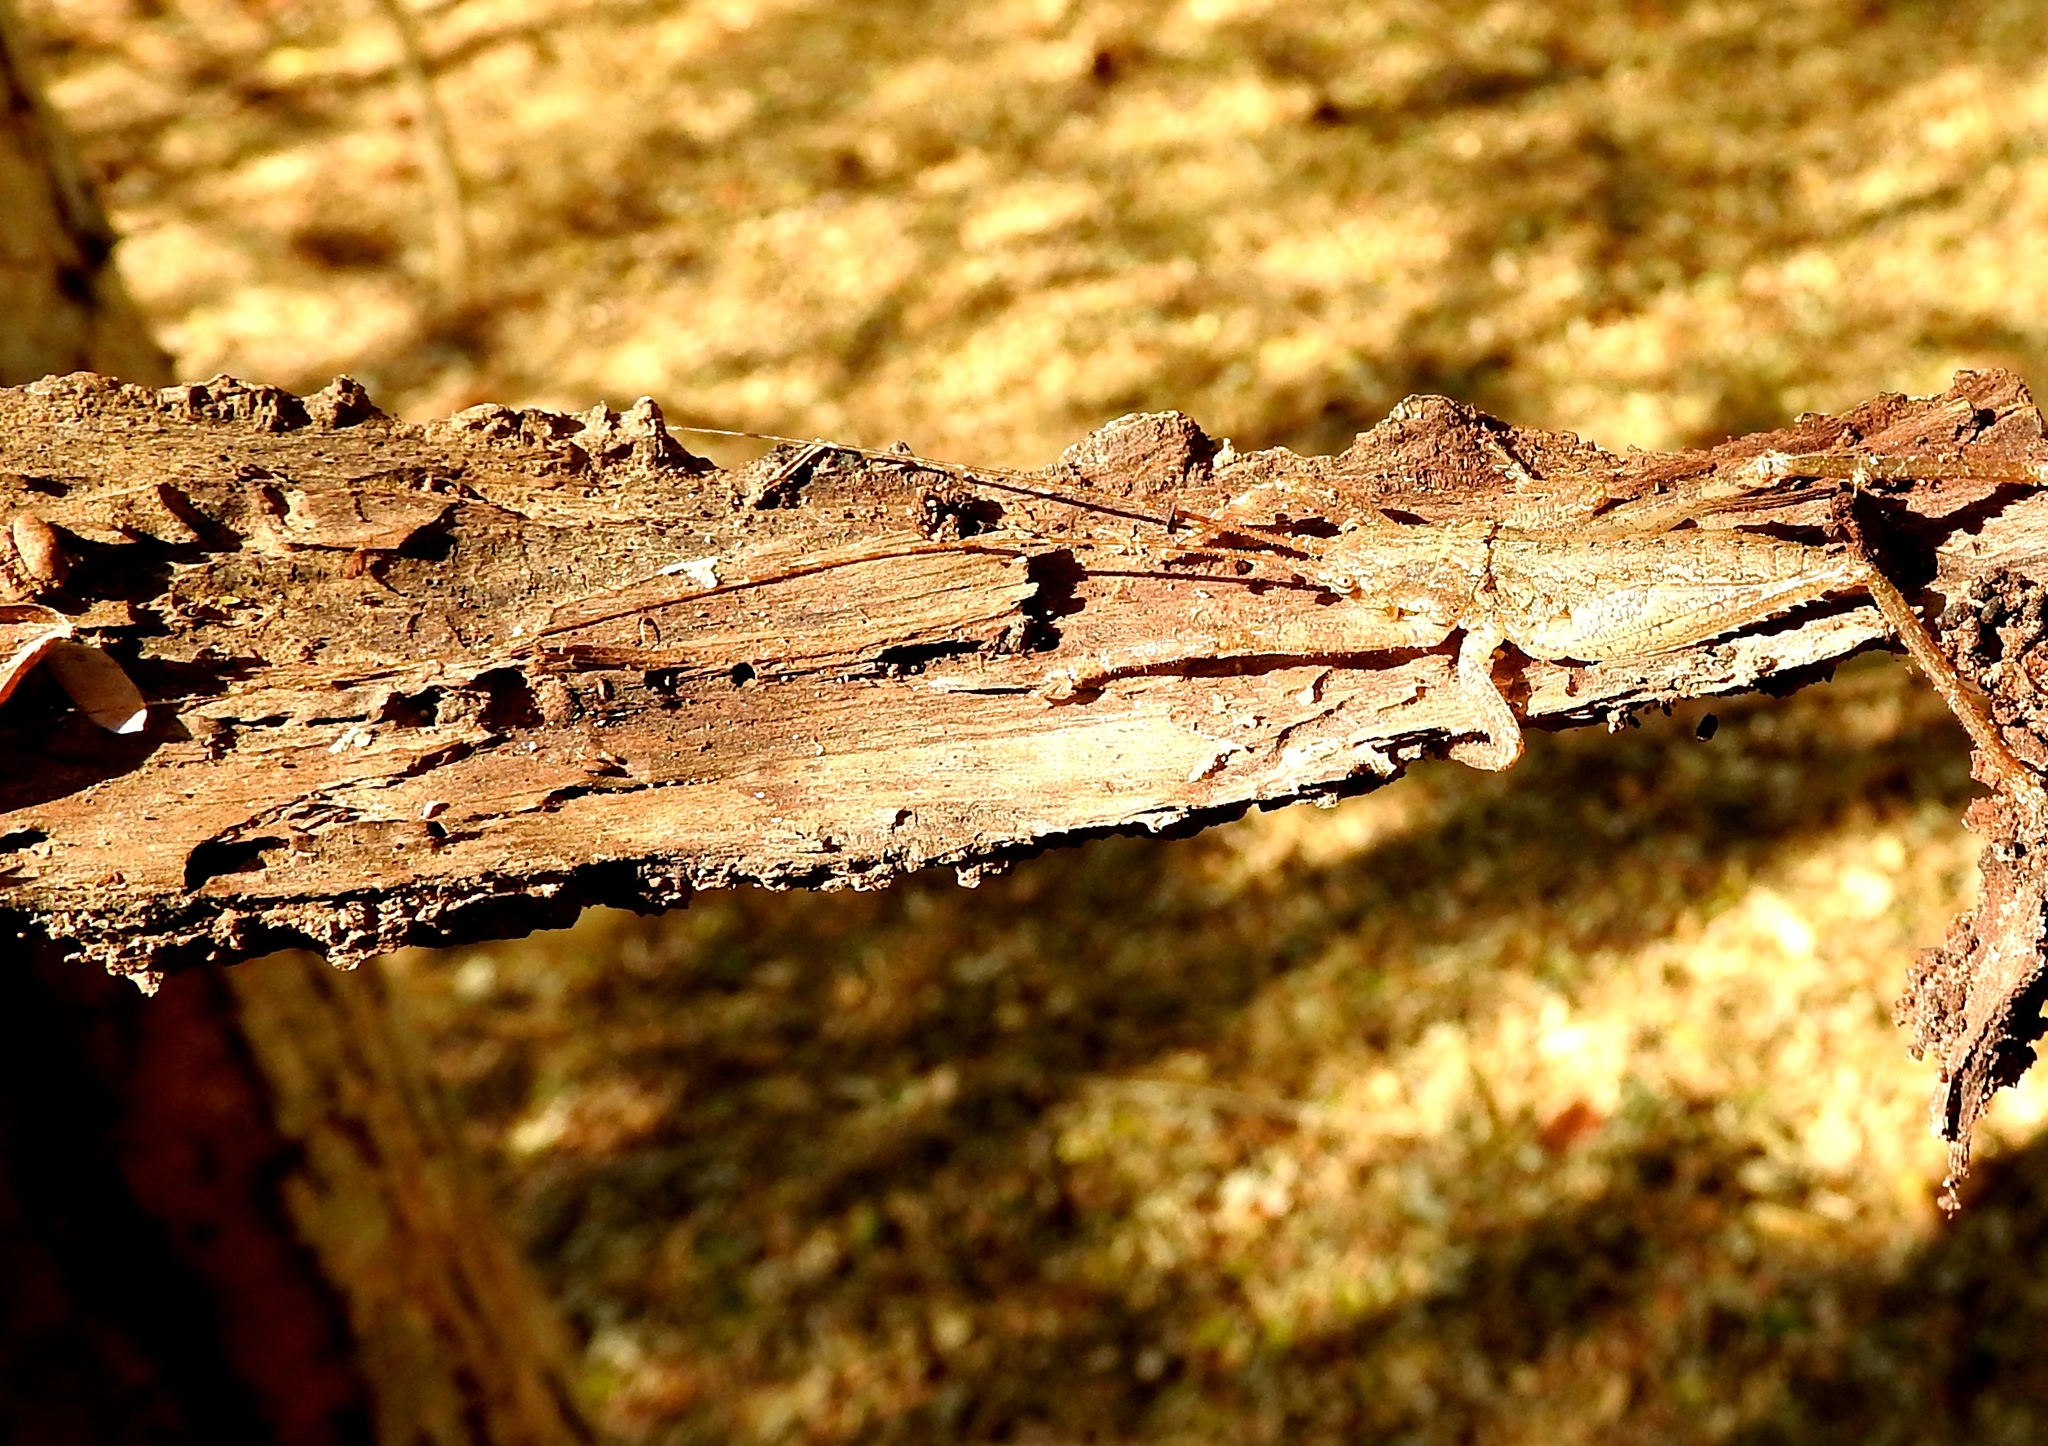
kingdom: Animalia
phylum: Arthropoda
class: Insecta
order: Orthoptera
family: Tettigoniidae
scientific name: Tettigoniidae
